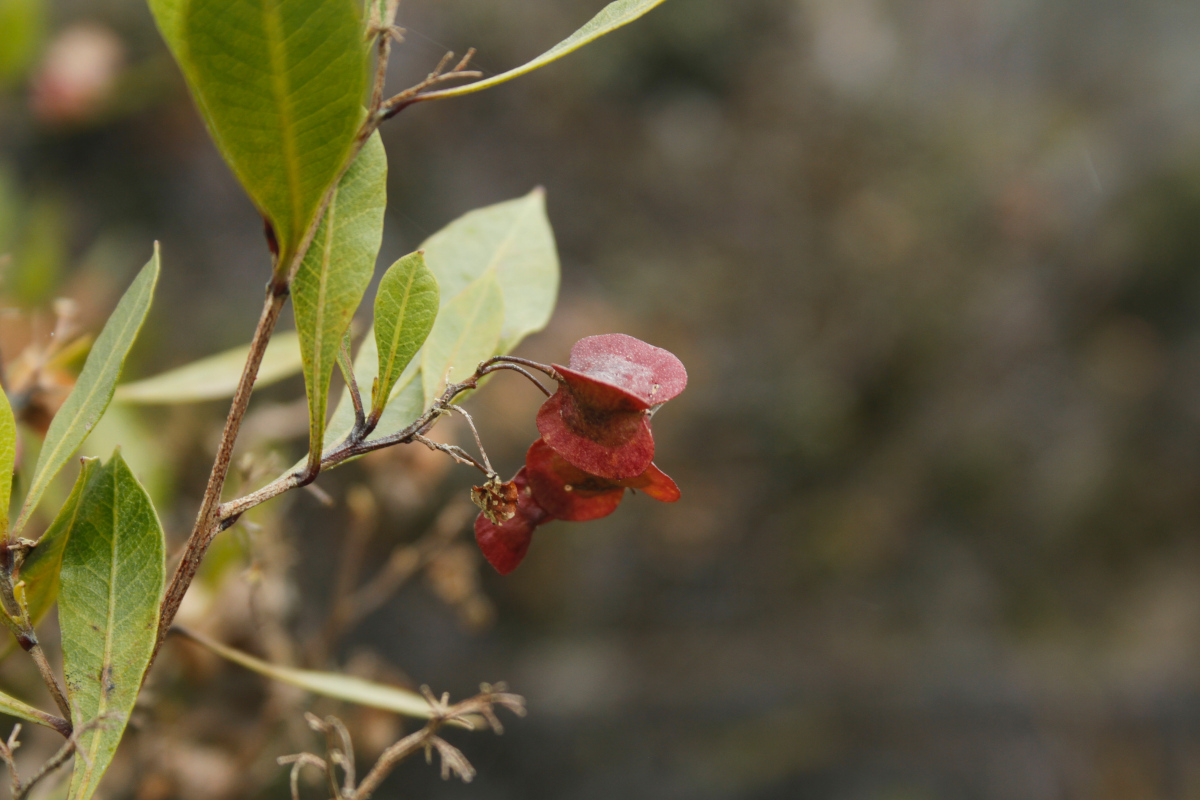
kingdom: Plantae
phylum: Tracheophyta
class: Magnoliopsida
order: Sapindales
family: Sapindaceae
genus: Dodonaea
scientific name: Dodonaea viscosa
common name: Hopbush
